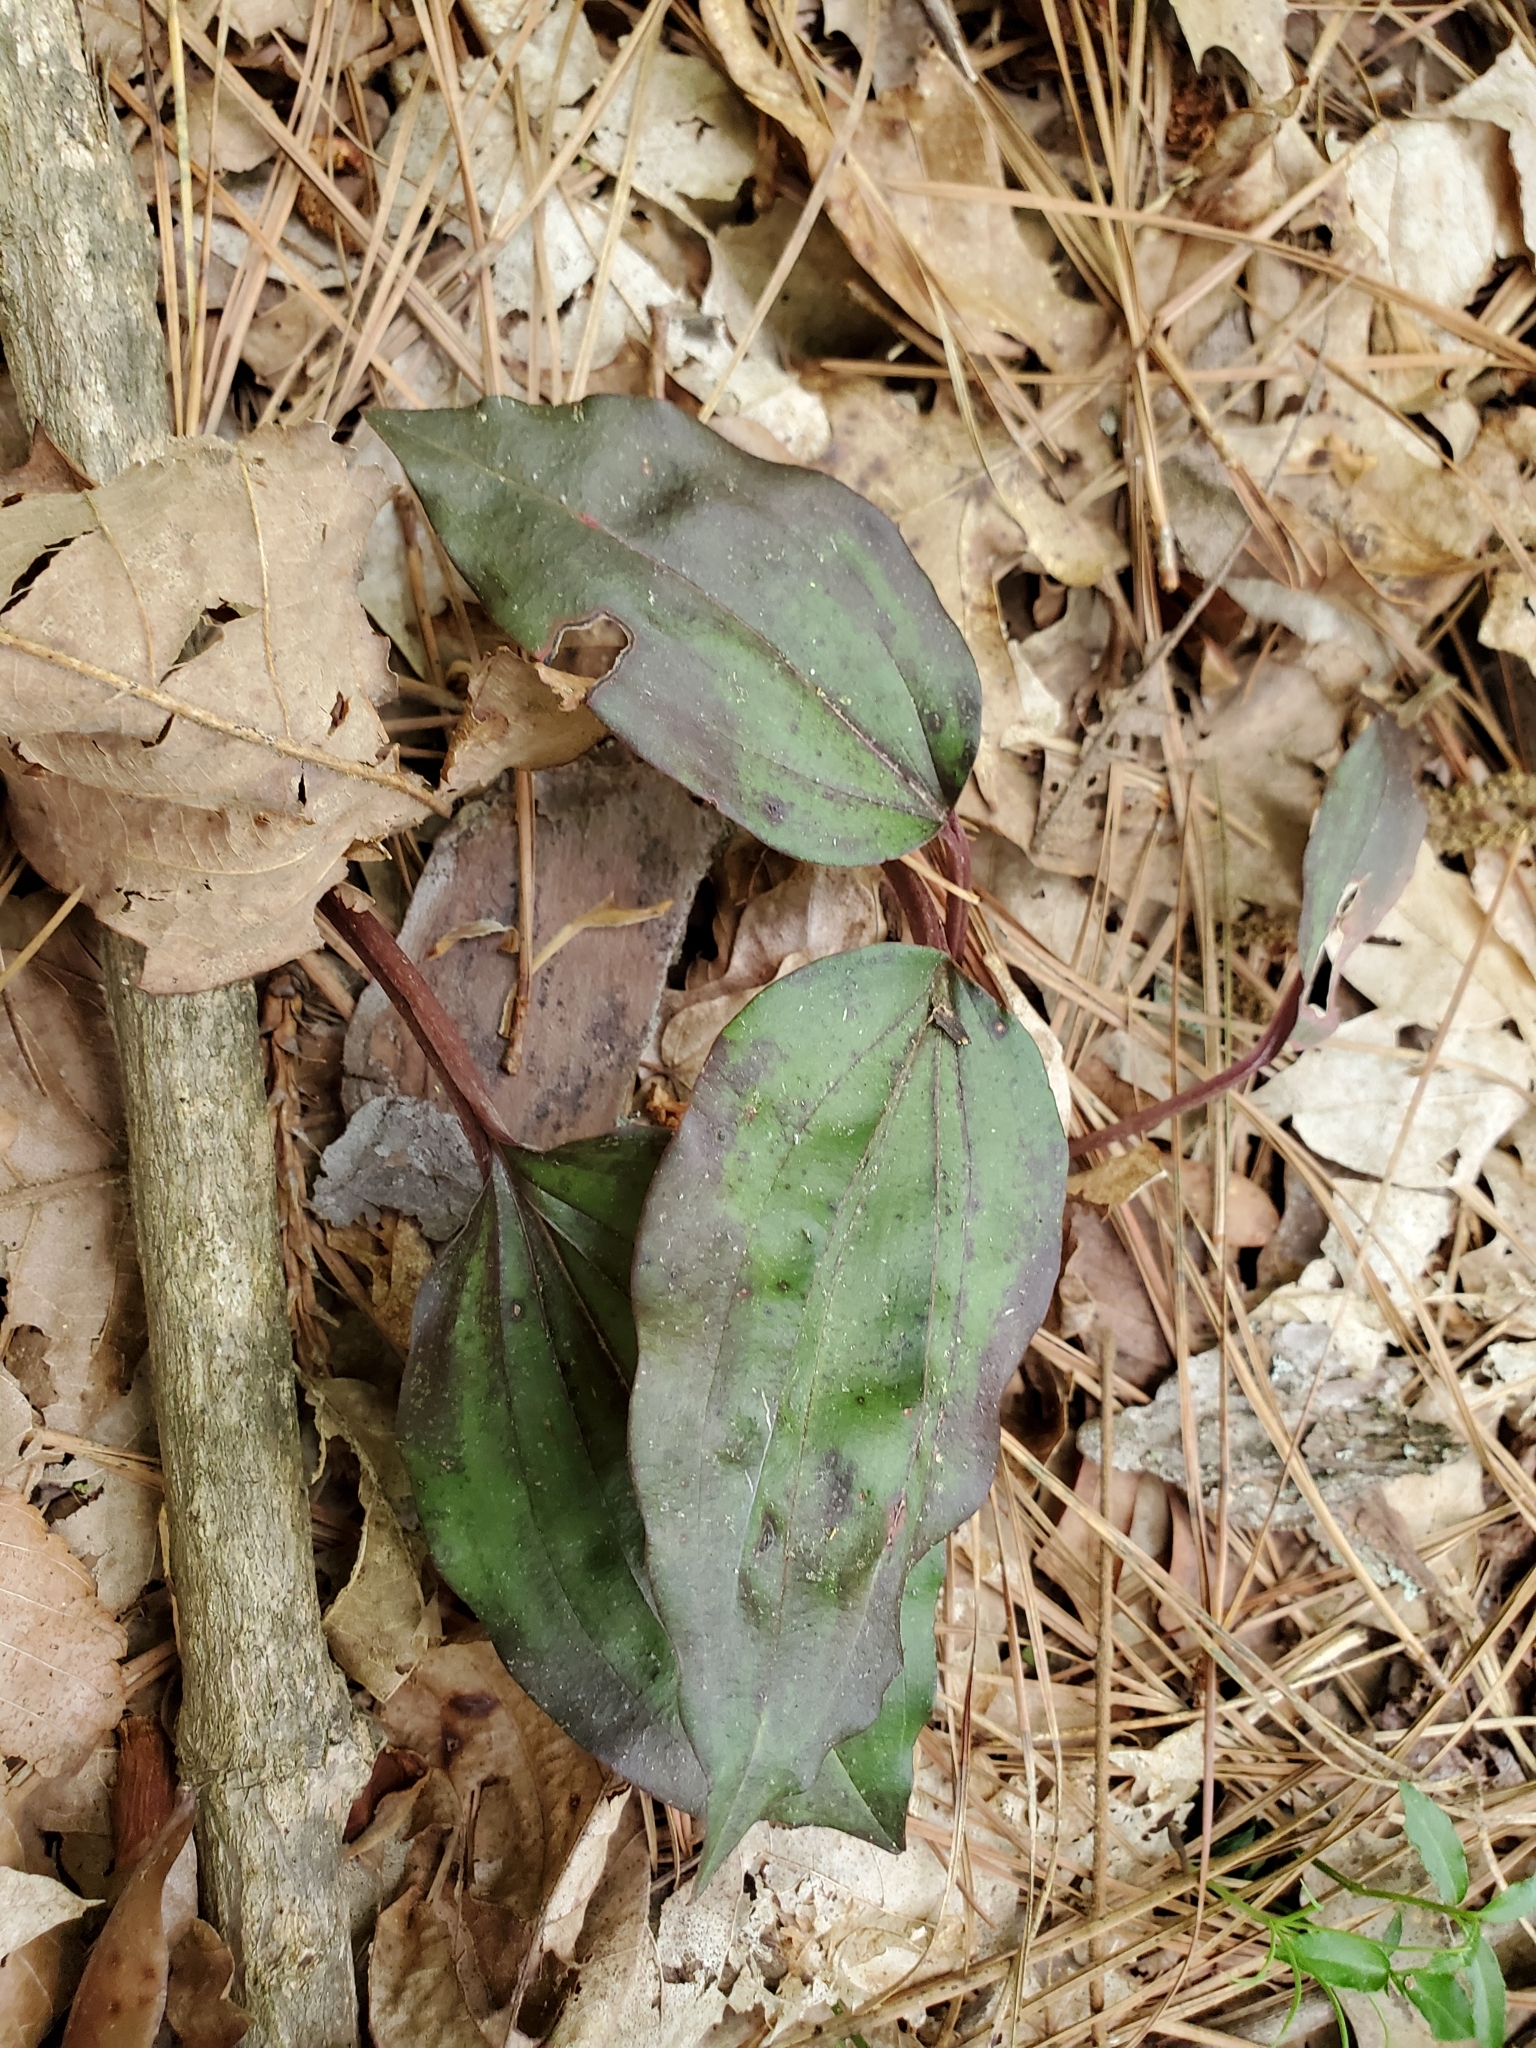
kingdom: Plantae
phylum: Tracheophyta
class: Liliopsida
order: Asparagales
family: Orchidaceae
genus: Tipularia
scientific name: Tipularia discolor
